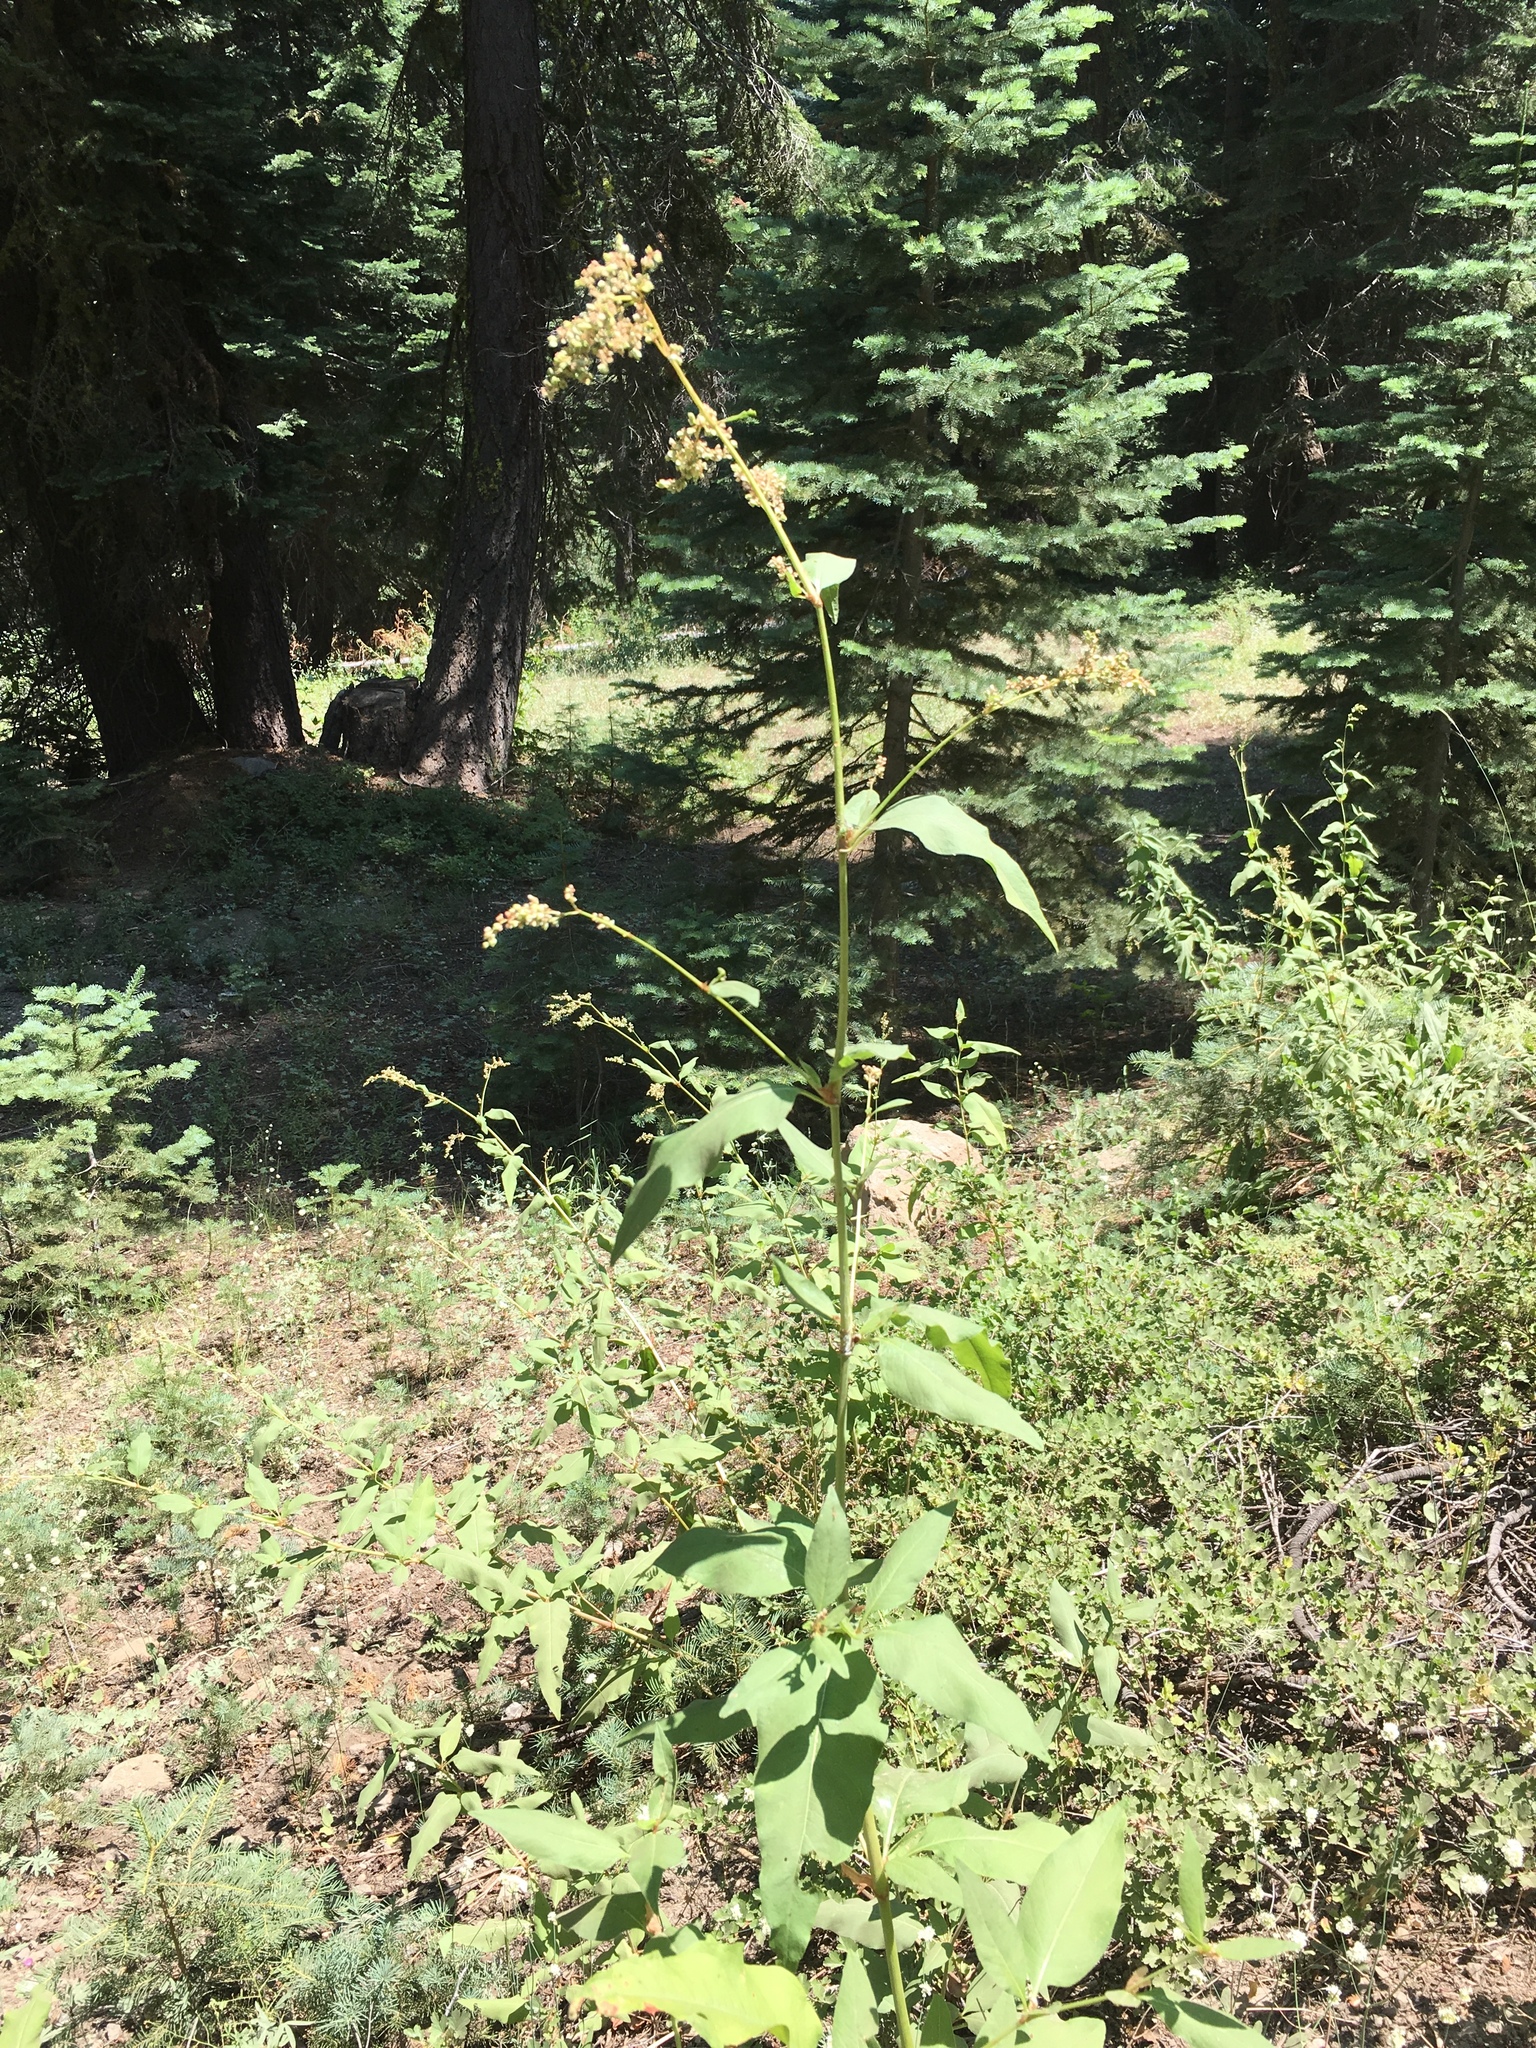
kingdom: Plantae
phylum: Tracheophyta
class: Magnoliopsida
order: Caryophyllales
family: Polygonaceae
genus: Koenigia
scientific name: Koenigia phytolaccifolia
